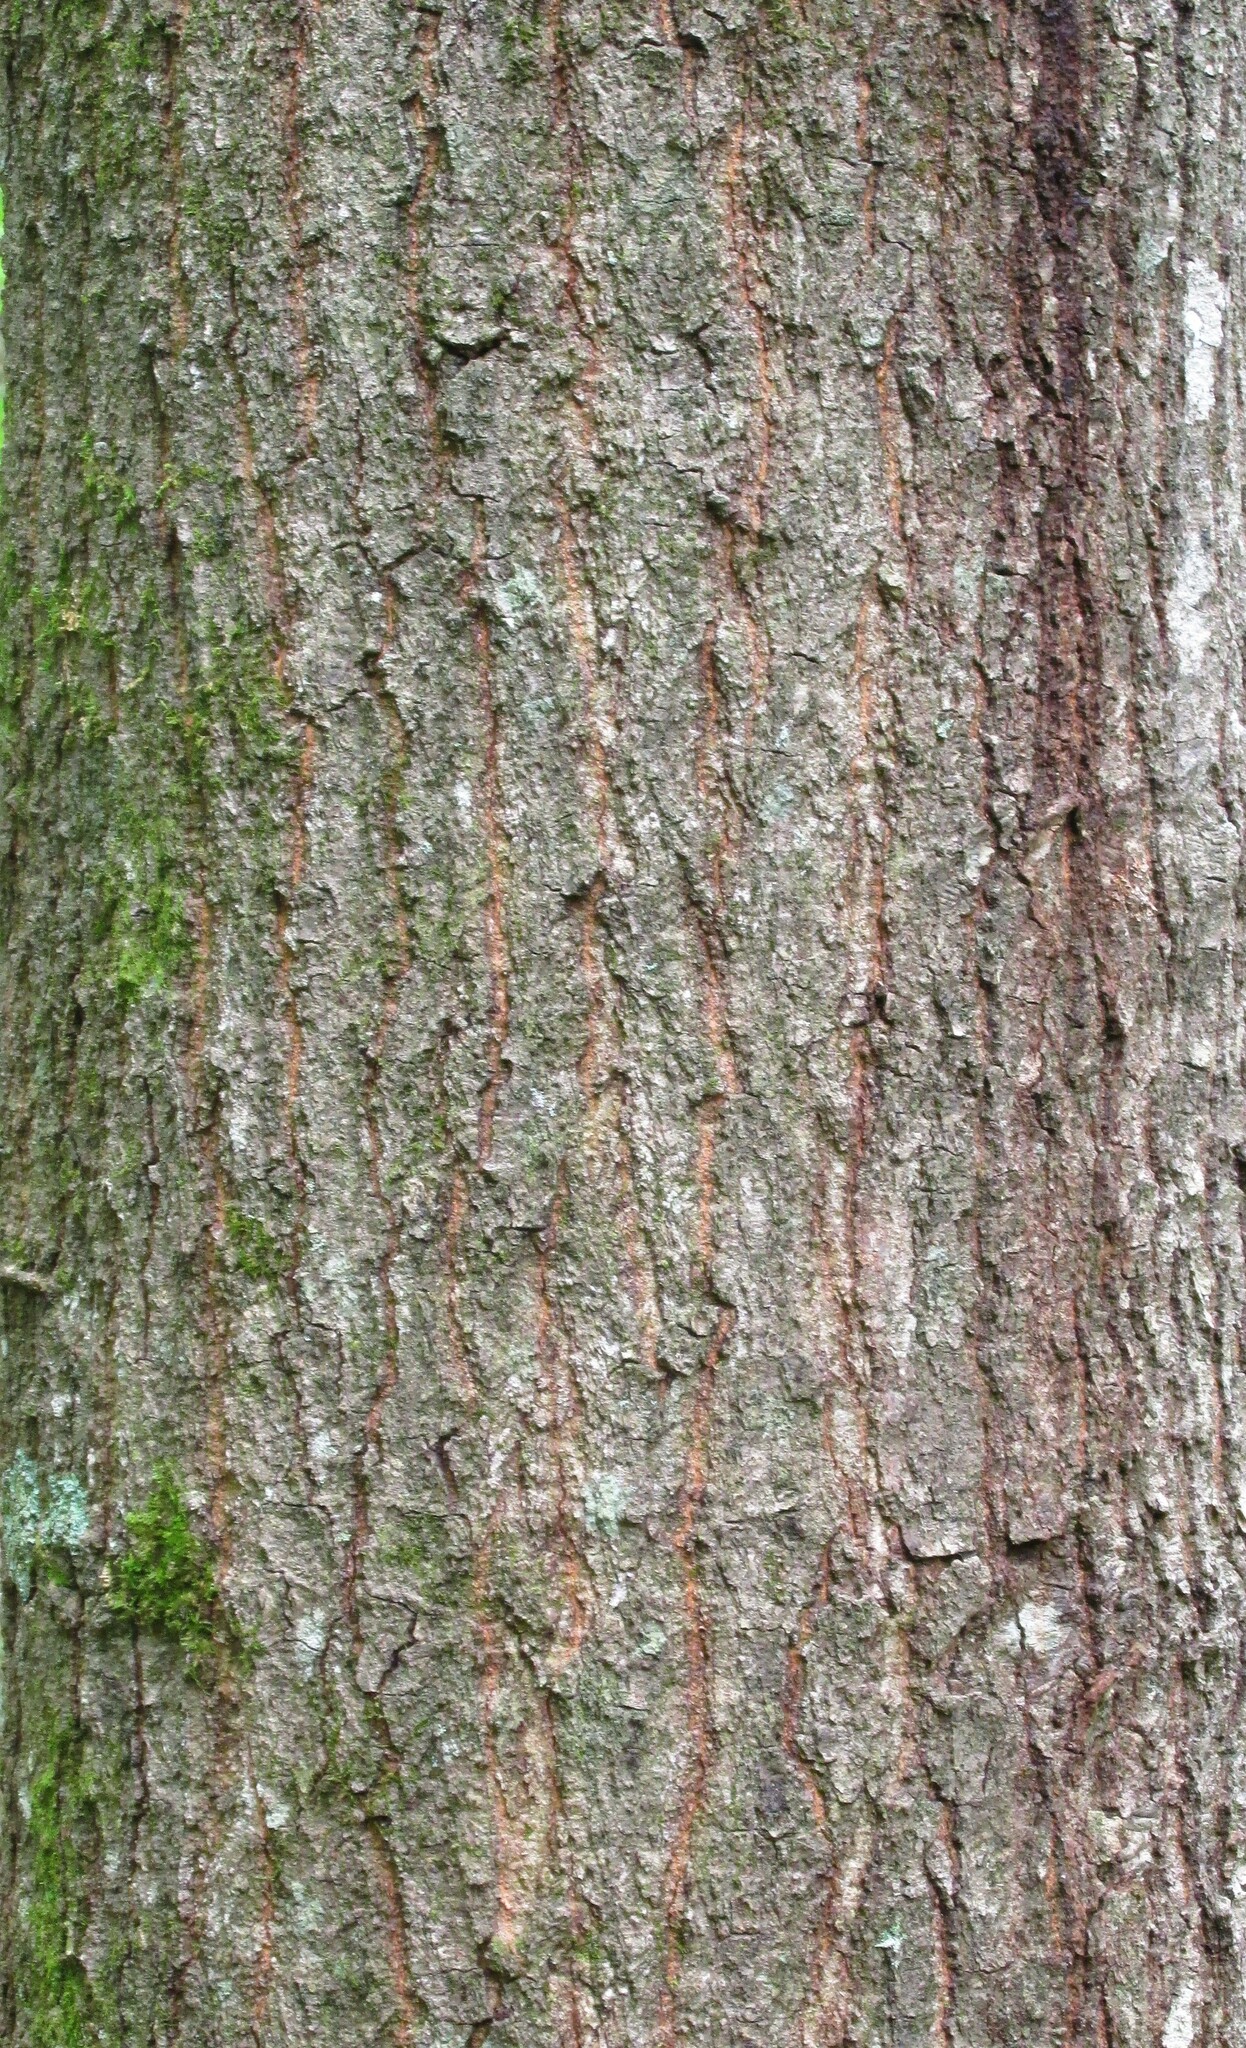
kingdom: Plantae
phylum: Tracheophyta
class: Magnoliopsida
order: Fagales
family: Fagaceae
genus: Quercus
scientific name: Quercus nigra
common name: Water oak
